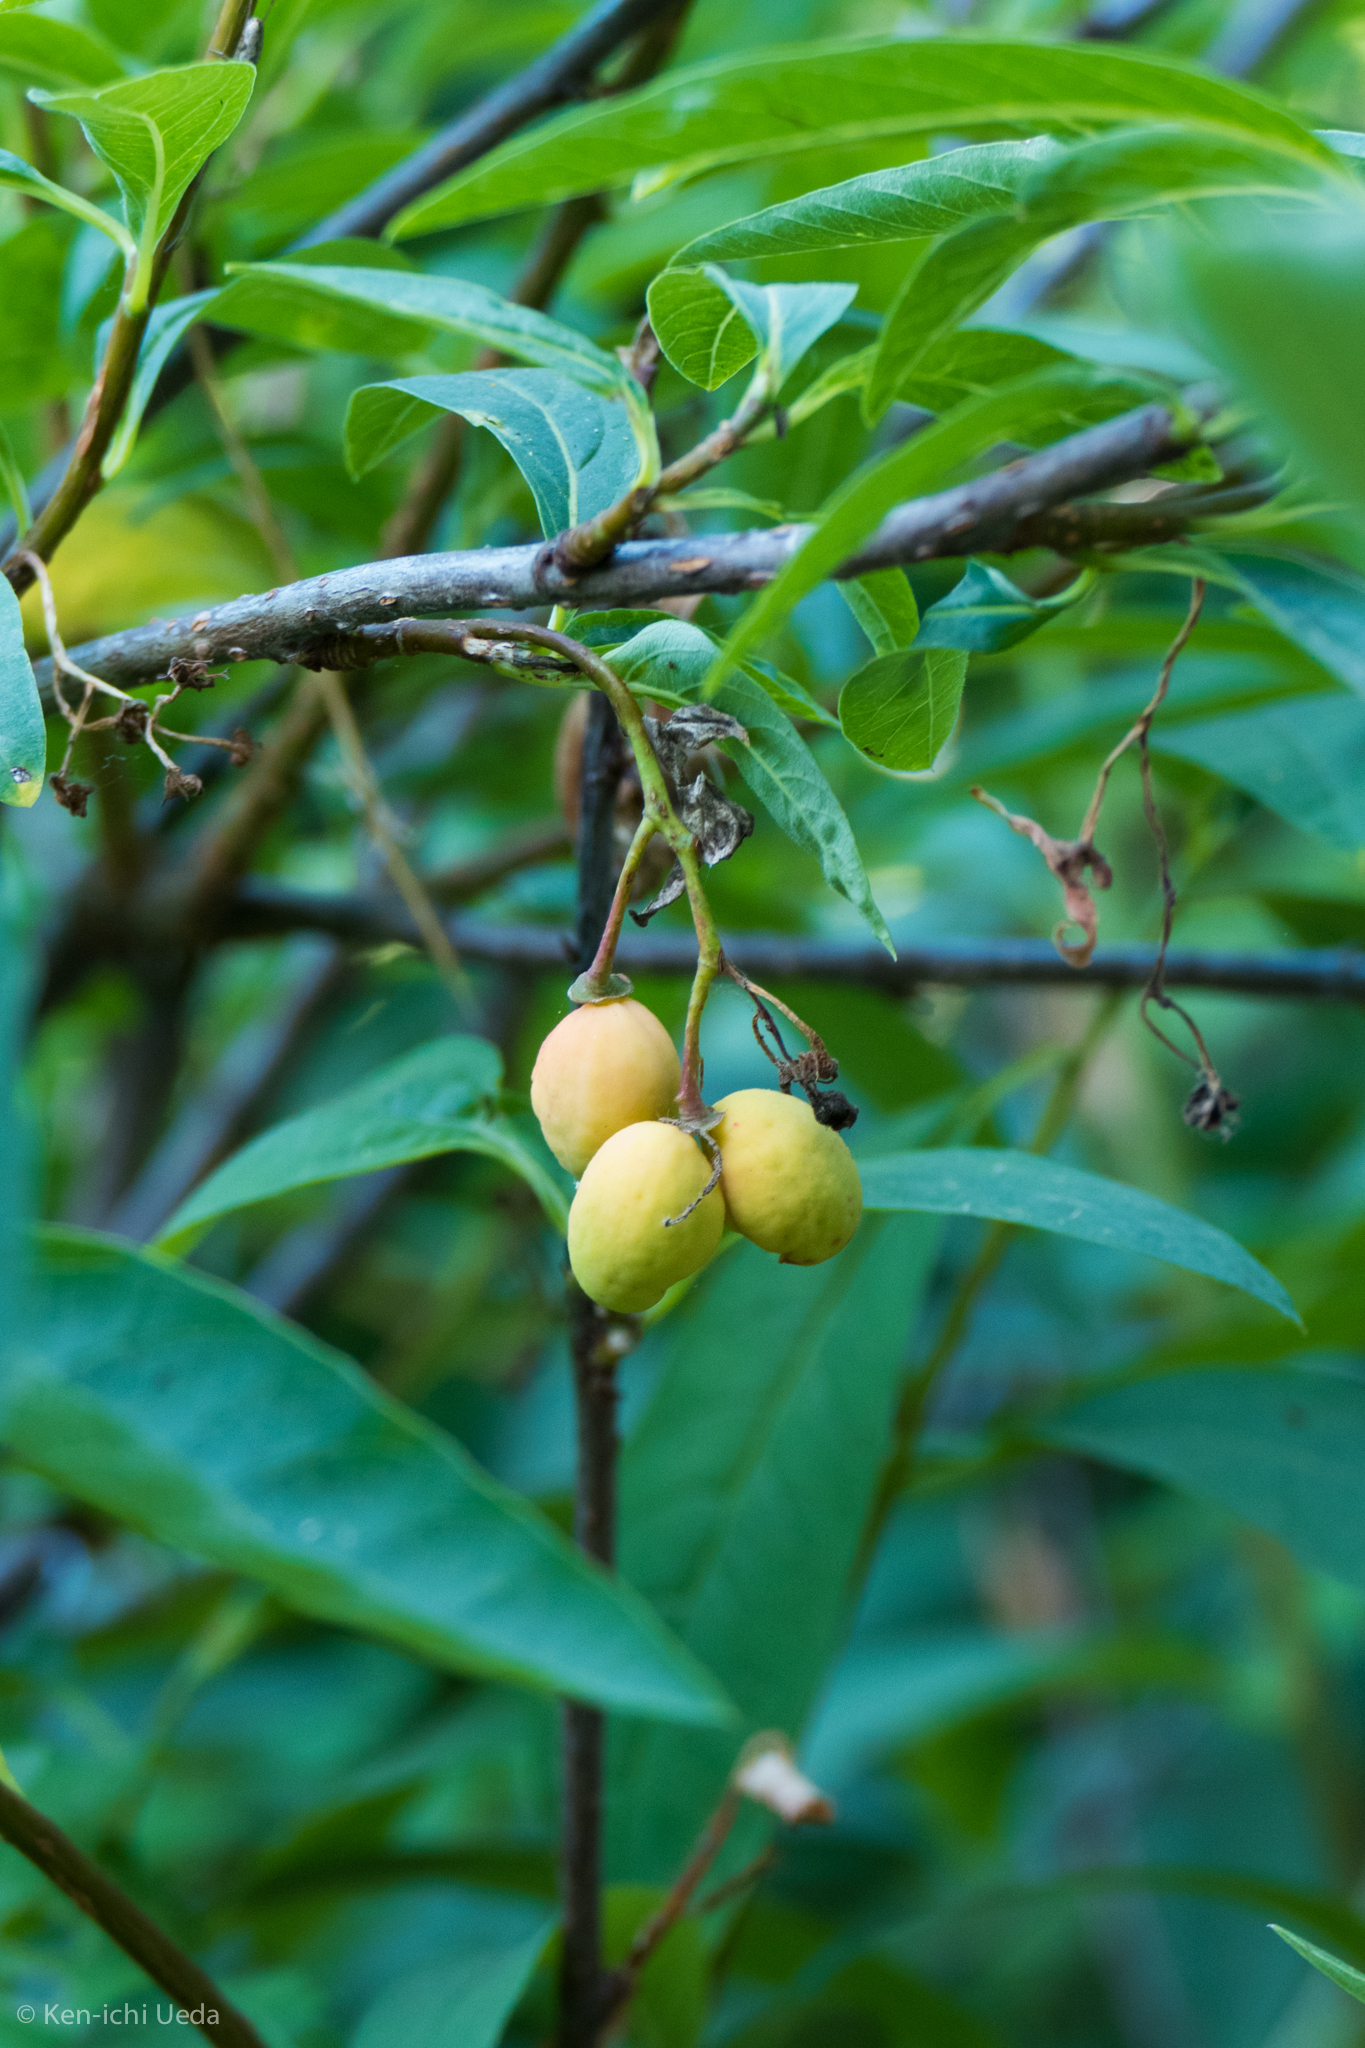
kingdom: Plantae
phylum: Tracheophyta
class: Magnoliopsida
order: Rosales
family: Rosaceae
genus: Oemleria
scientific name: Oemleria cerasiformis
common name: Osoberry
